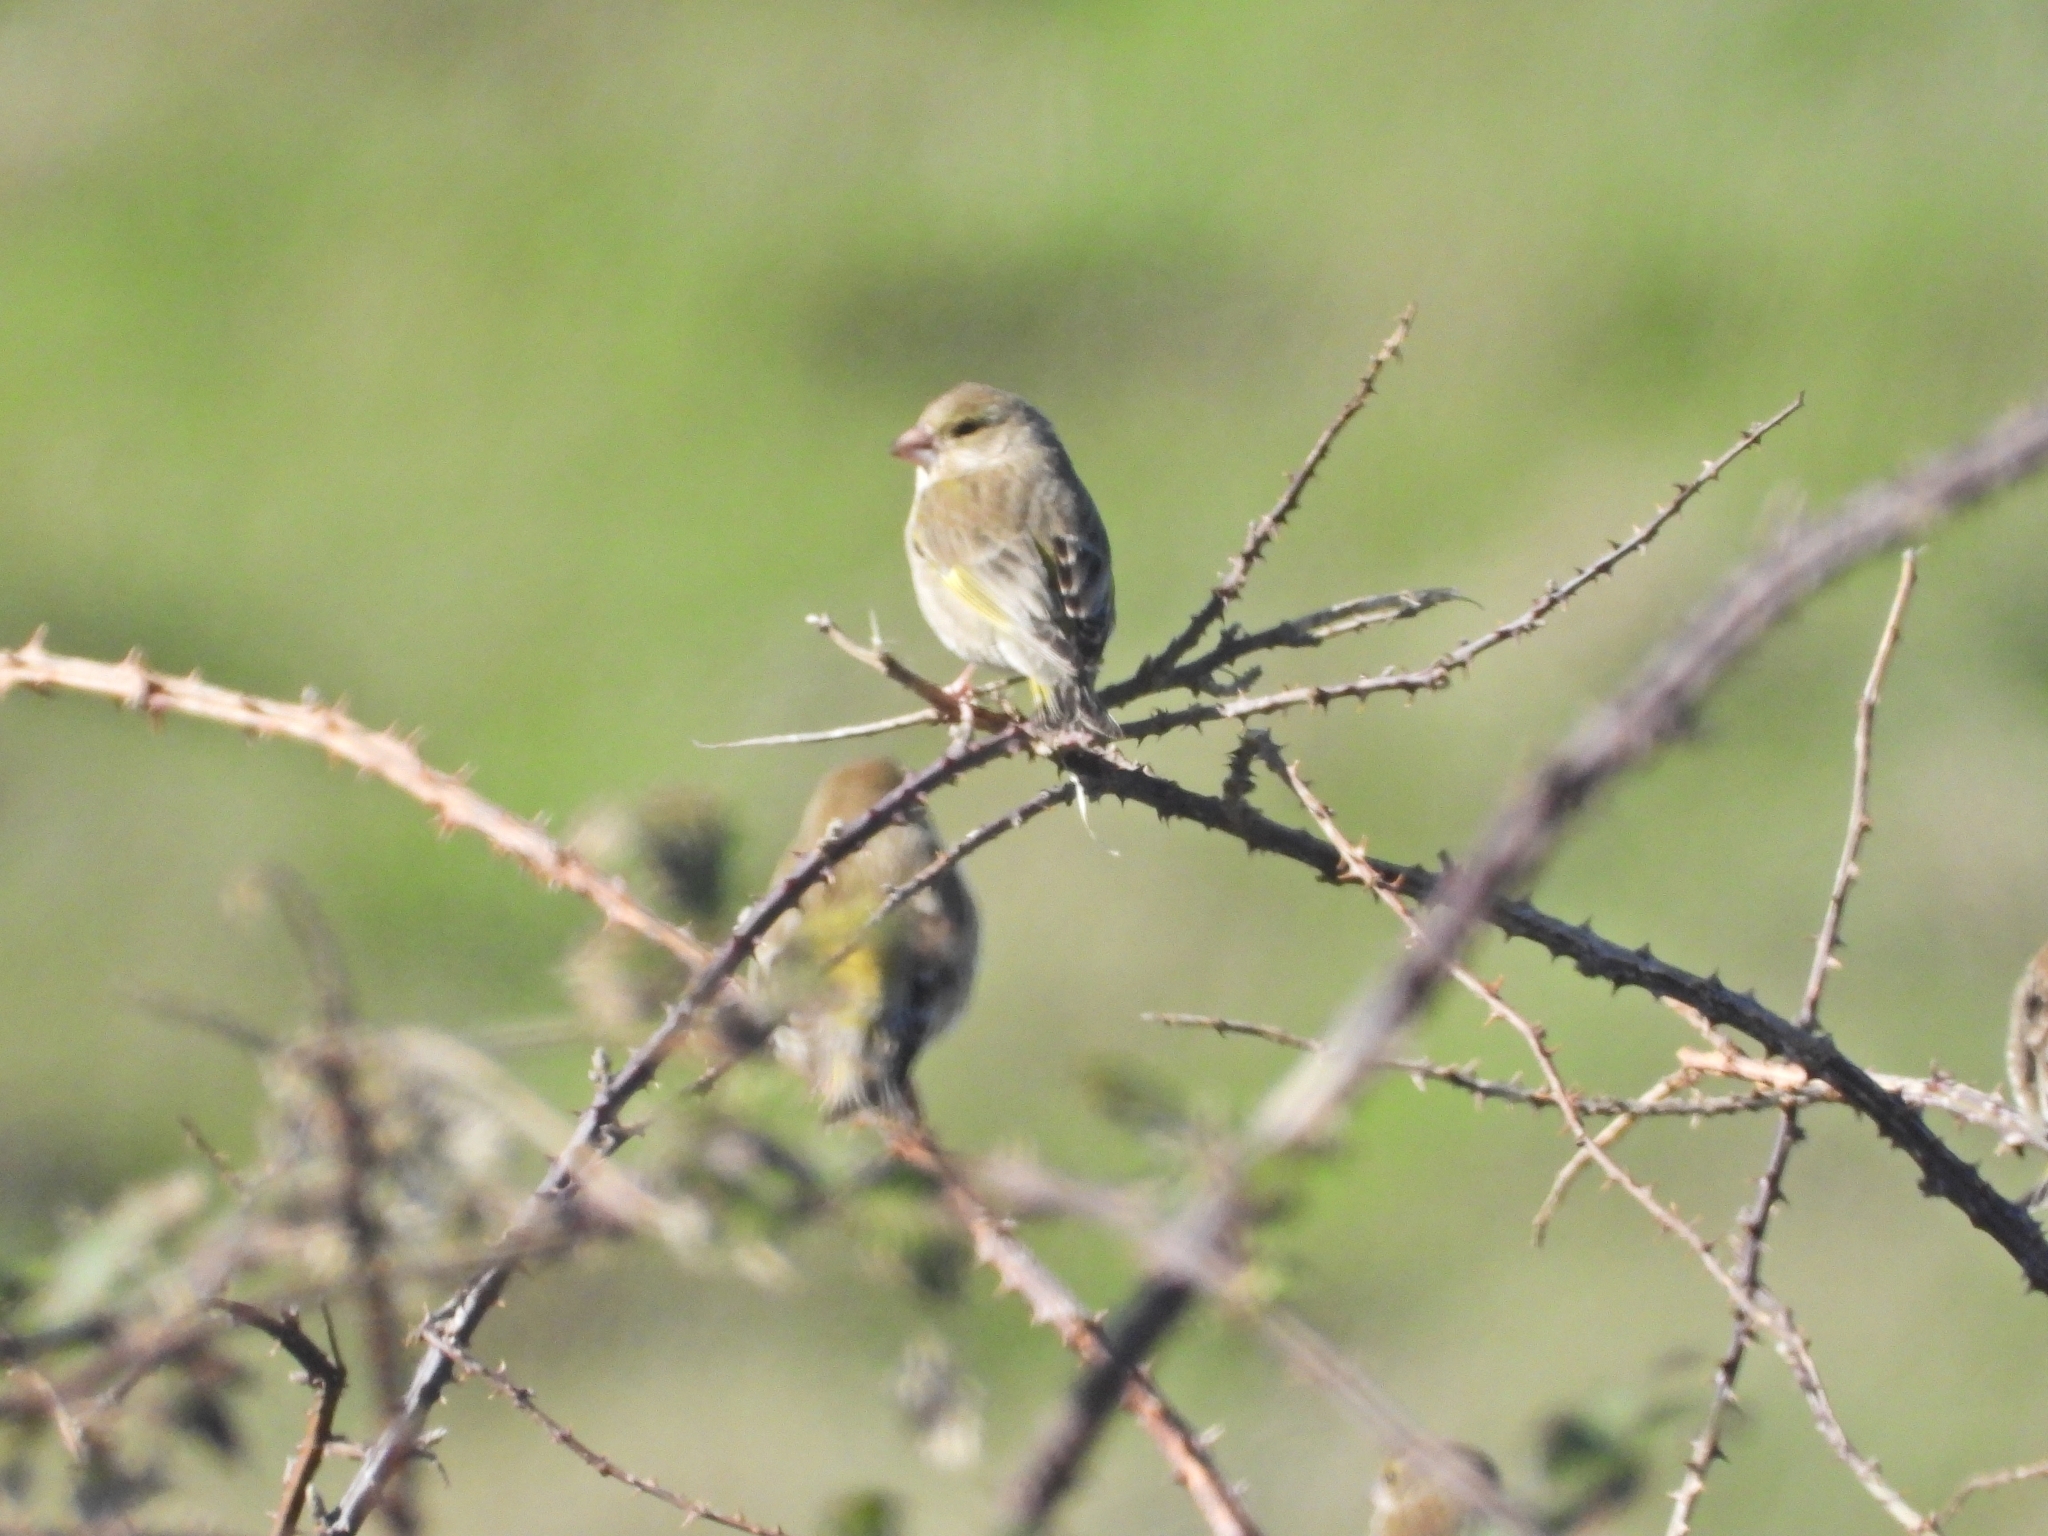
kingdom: Plantae
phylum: Tracheophyta
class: Liliopsida
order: Poales
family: Poaceae
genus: Chloris
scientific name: Chloris chloris
